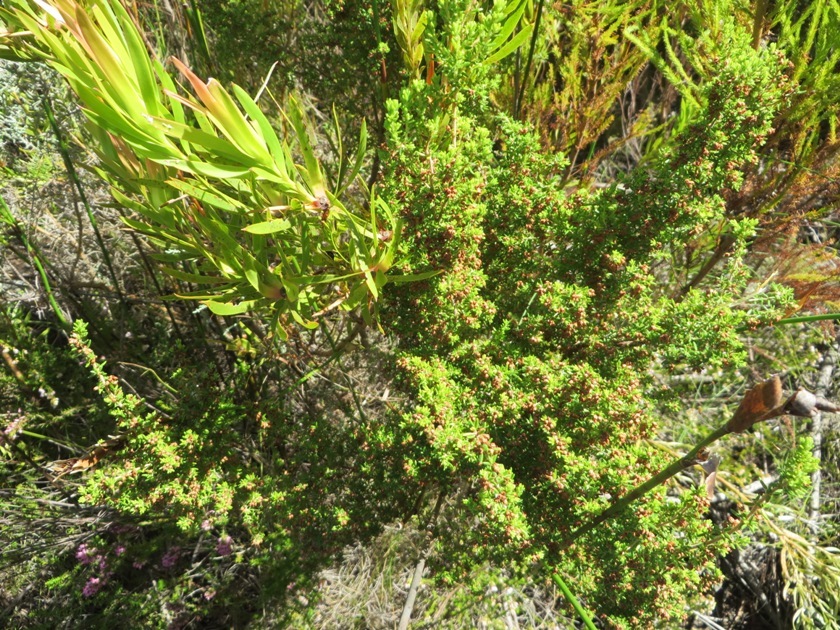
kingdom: Plantae
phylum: Tracheophyta
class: Magnoliopsida
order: Ericales
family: Ericaceae
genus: Erica
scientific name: Erica hispidula
